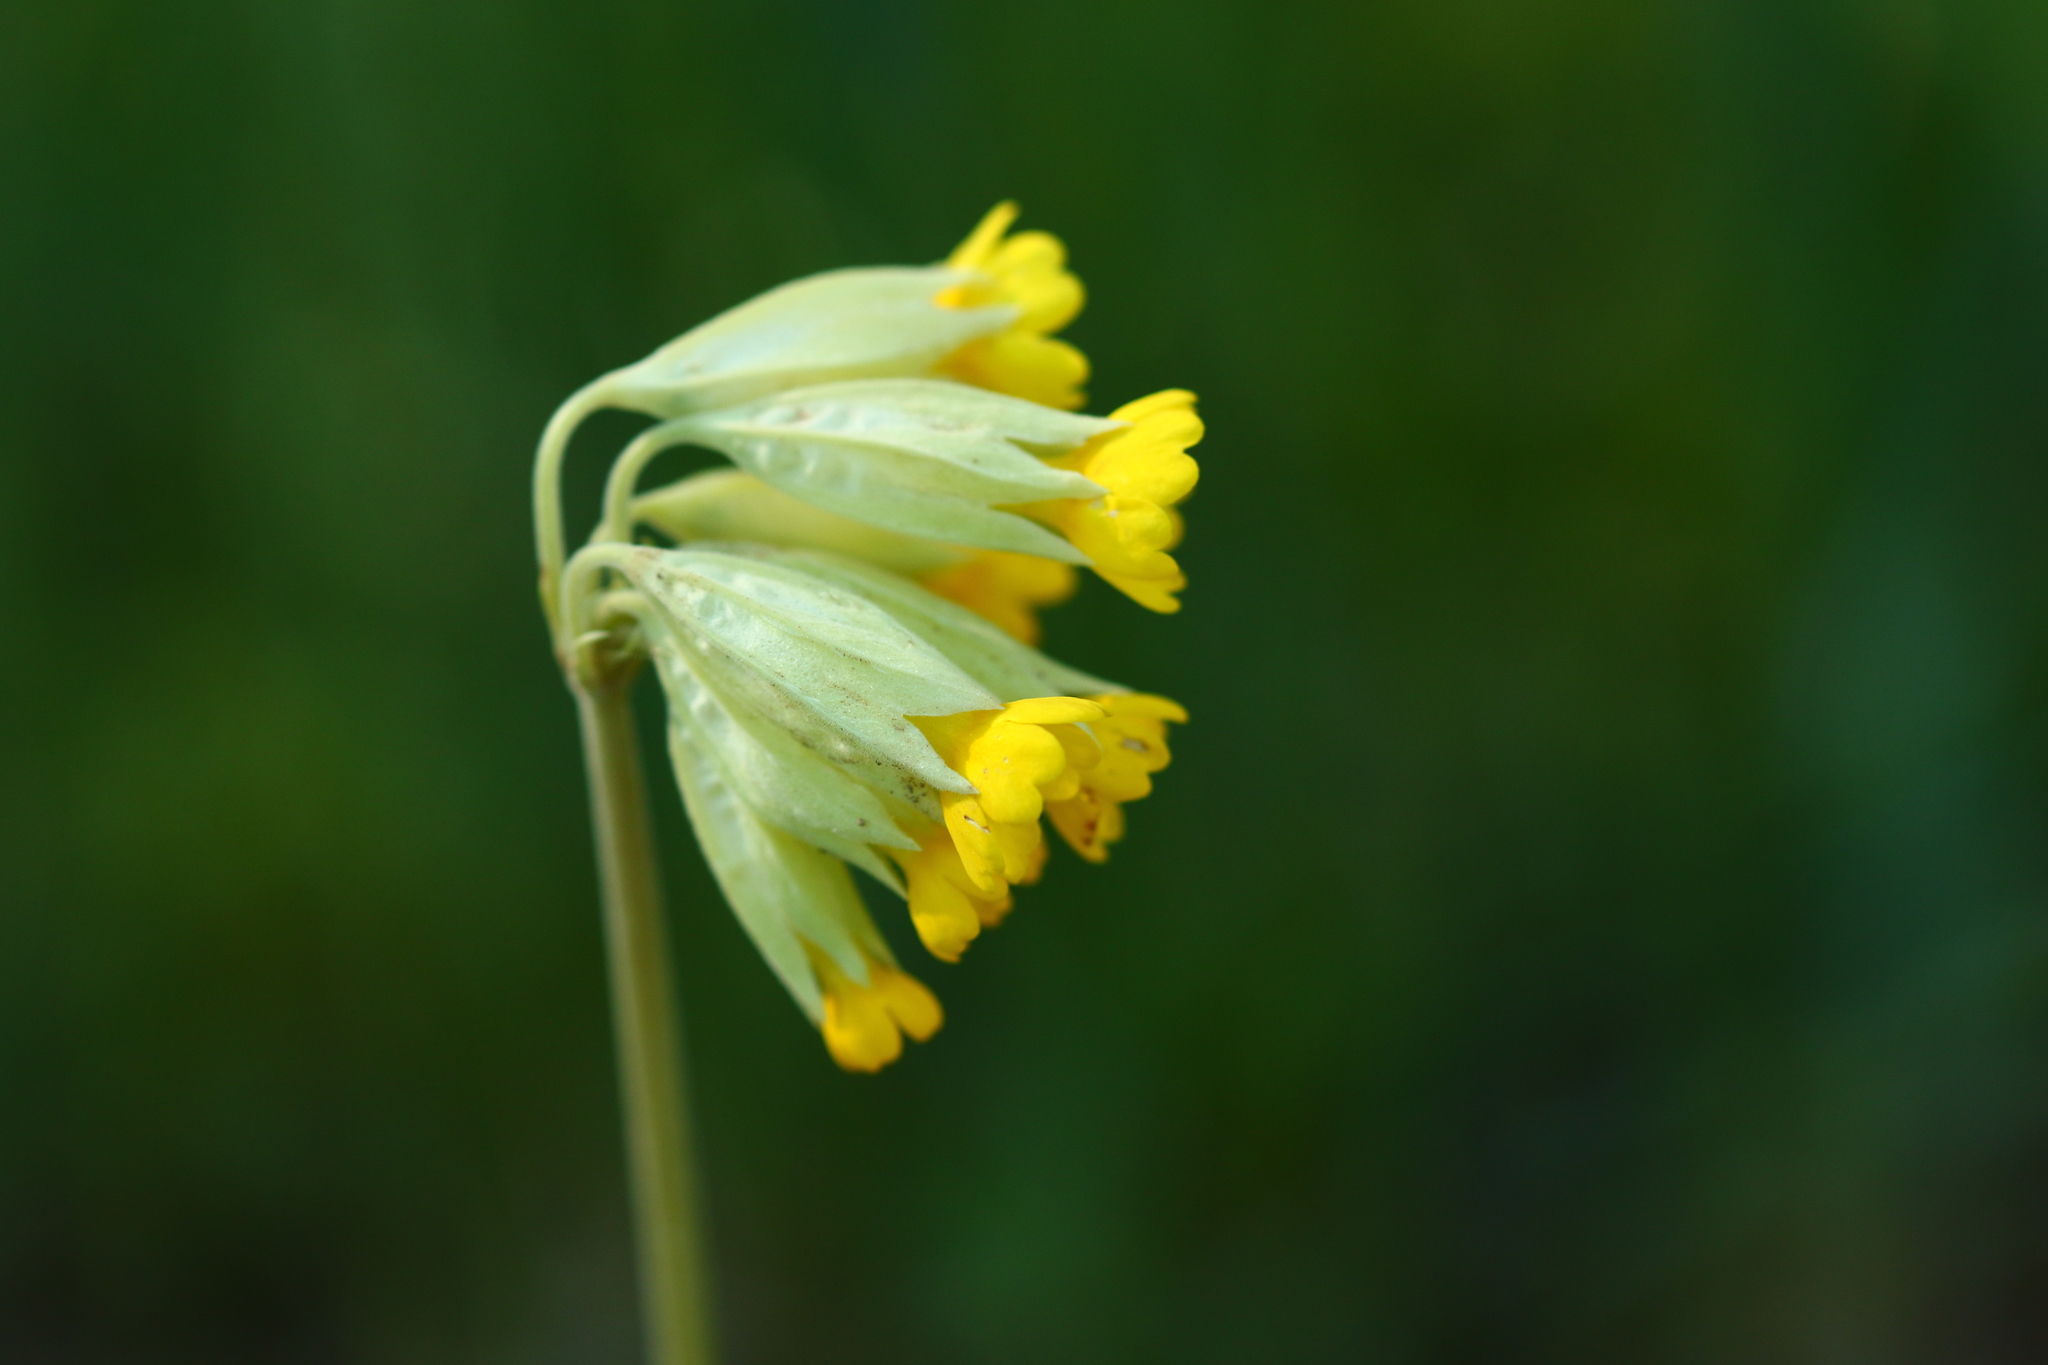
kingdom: Plantae
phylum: Tracheophyta
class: Magnoliopsida
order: Ericales
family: Primulaceae
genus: Primula
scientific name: Primula veris
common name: Cowslip
